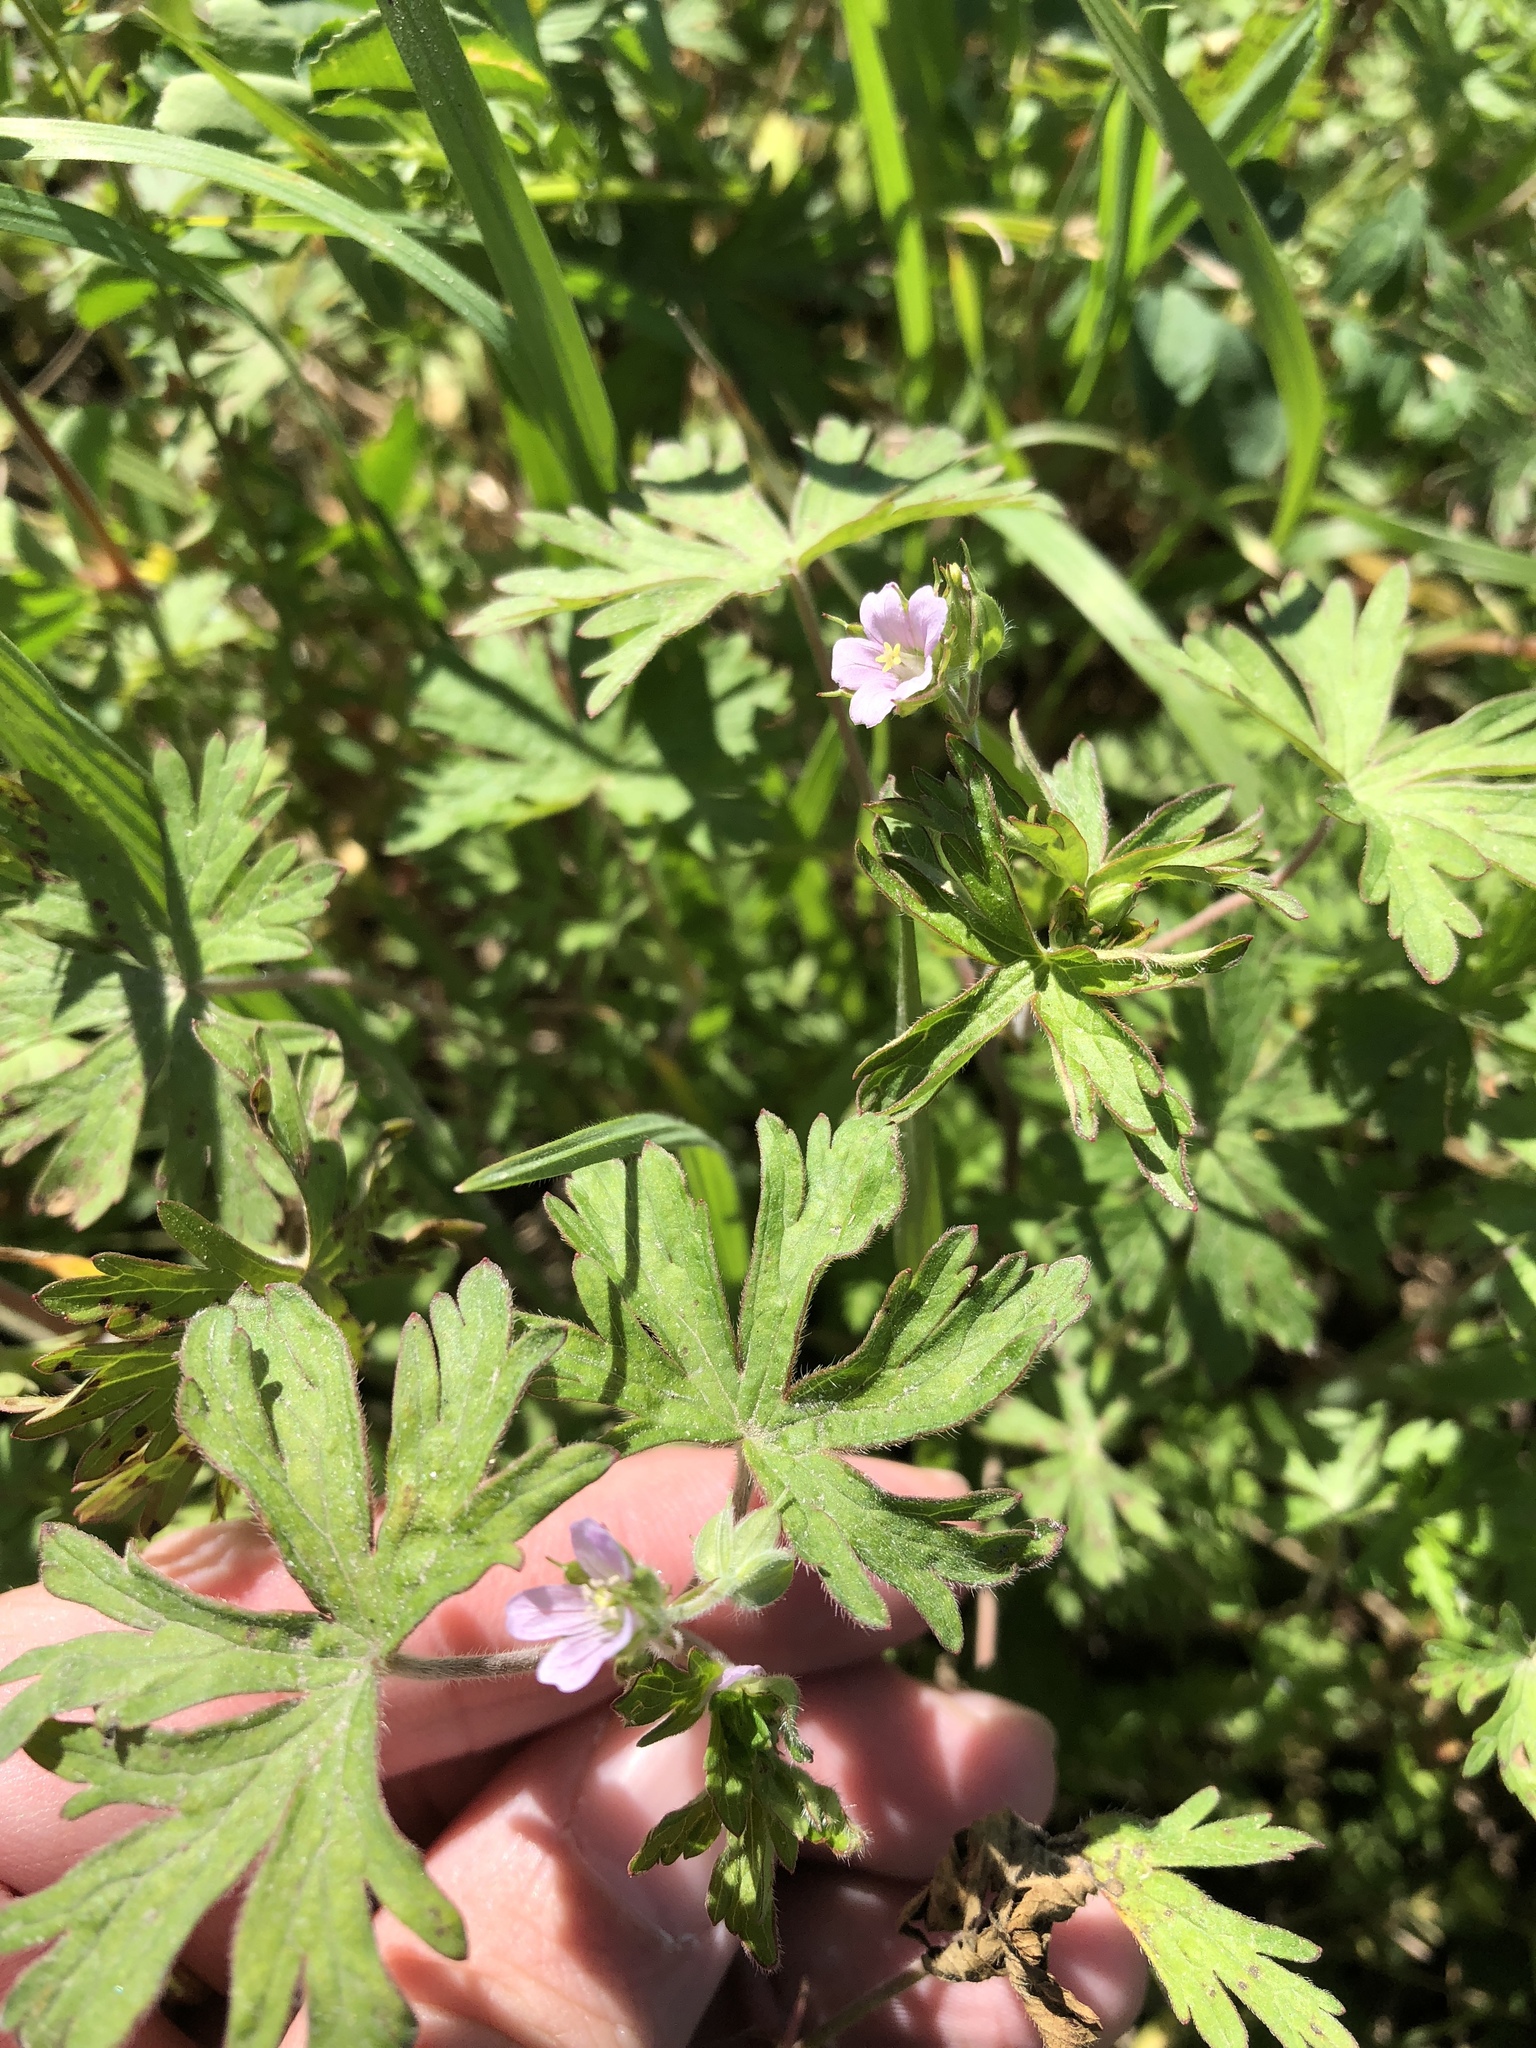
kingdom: Plantae
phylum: Tracheophyta
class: Magnoliopsida
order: Geraniales
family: Geraniaceae
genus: Geranium
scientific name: Geranium carolinianum
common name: Carolina crane's-bill
